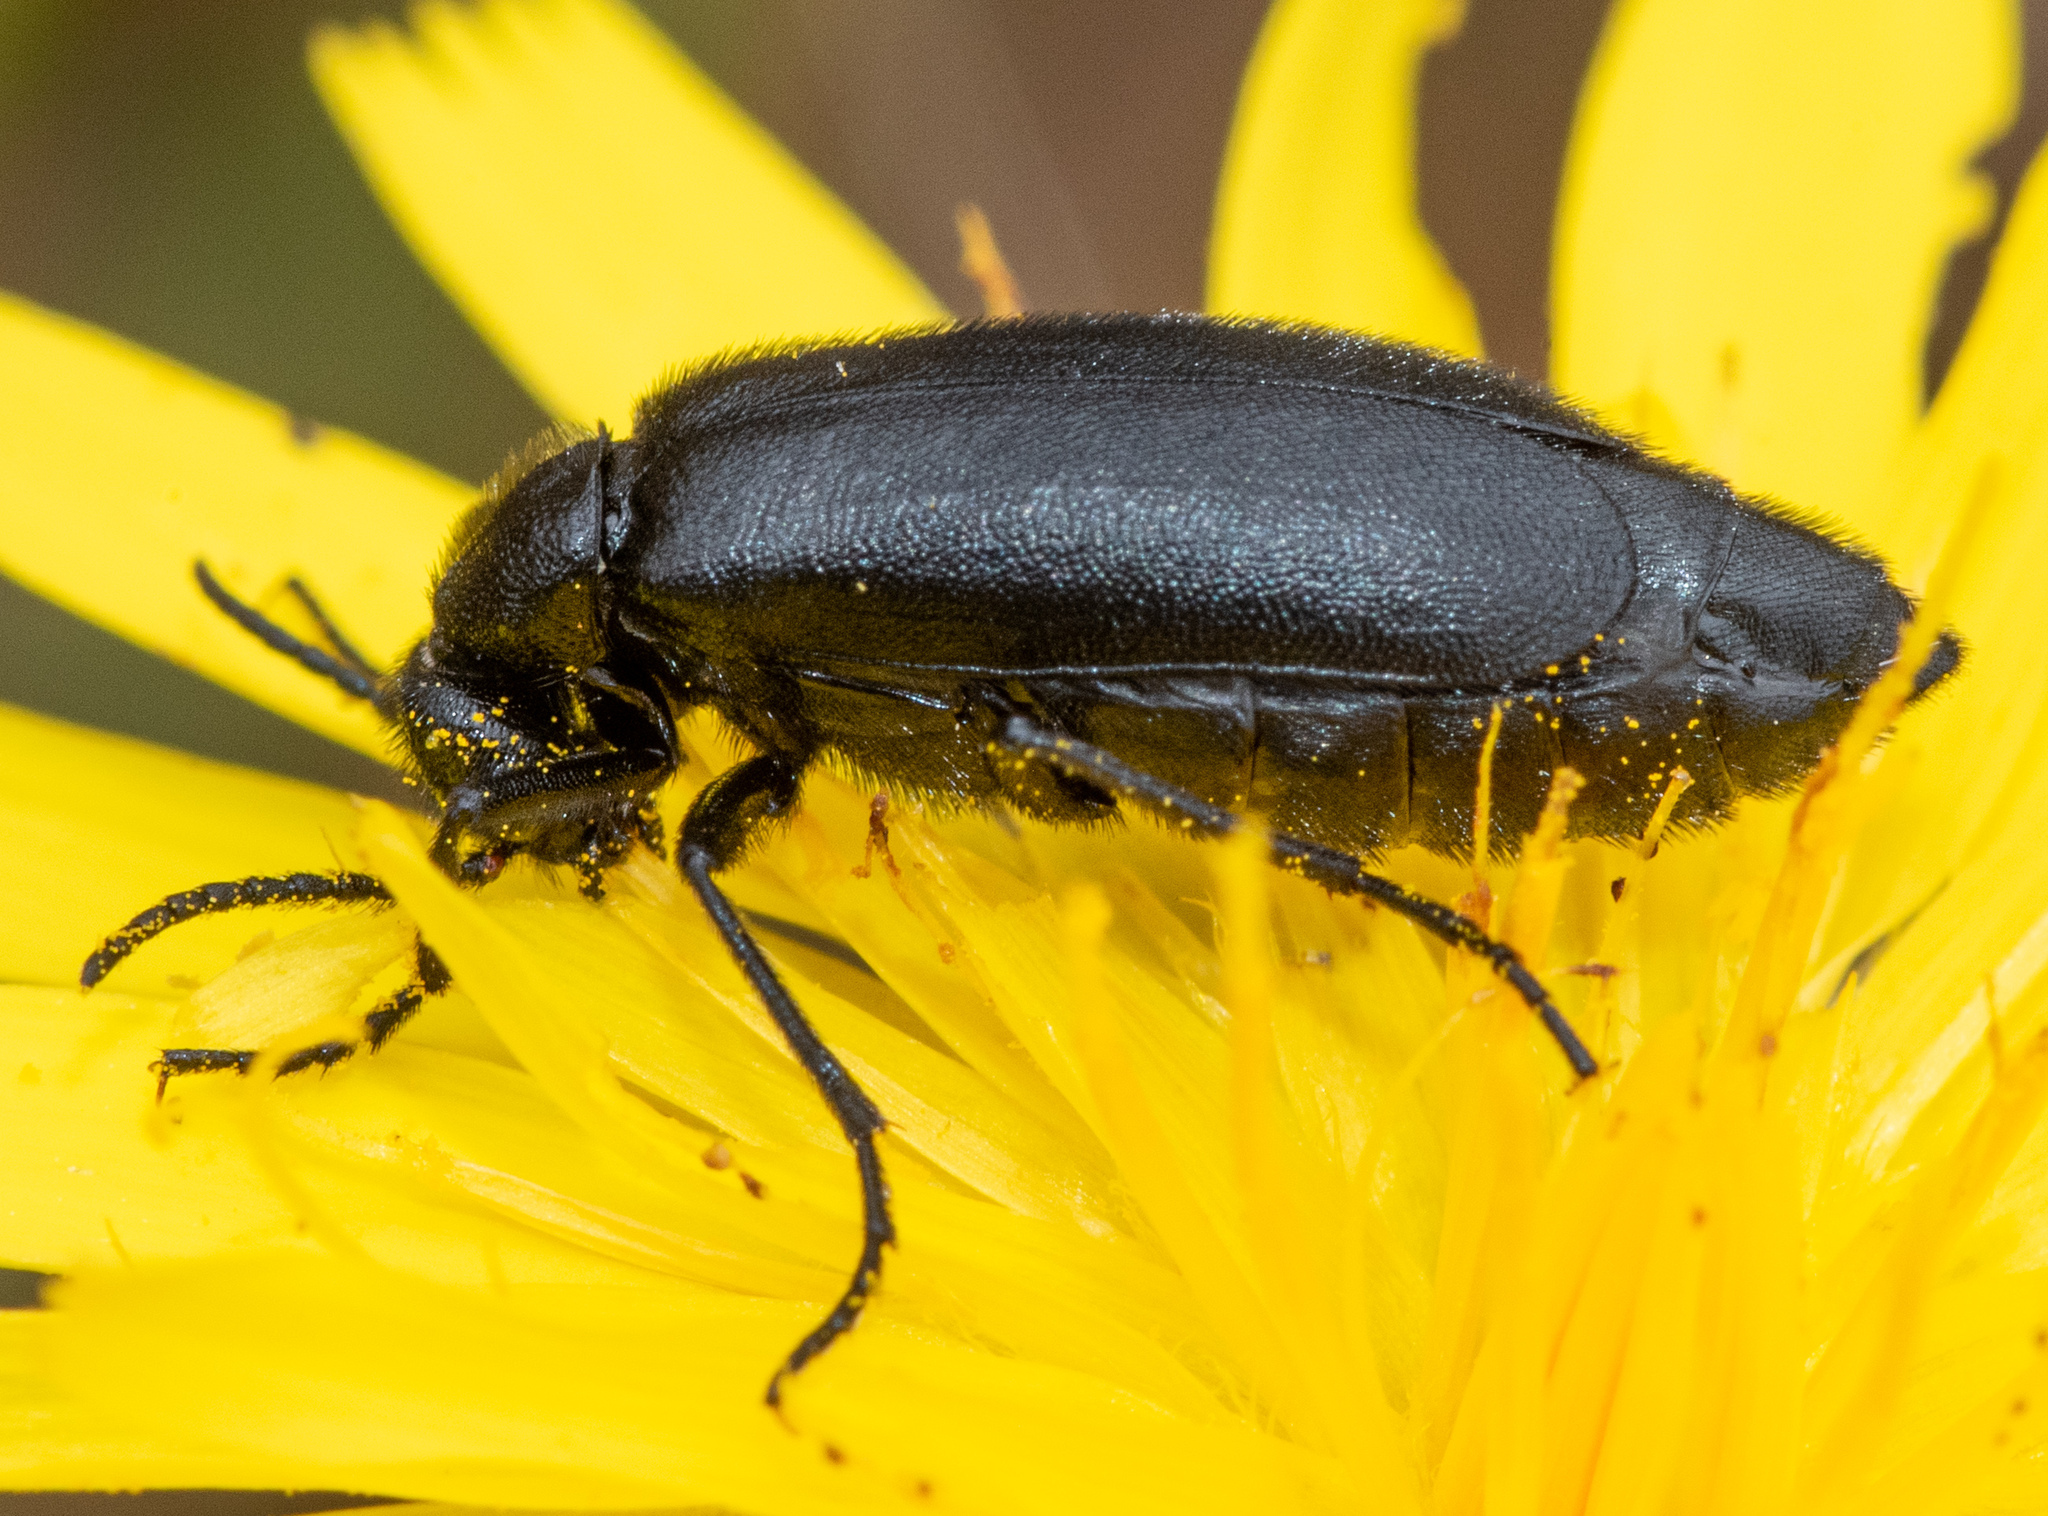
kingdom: Animalia
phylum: Arthropoda
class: Insecta
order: Coleoptera
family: Meloidae
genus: Epicauta
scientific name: Epicauta puncticollis
